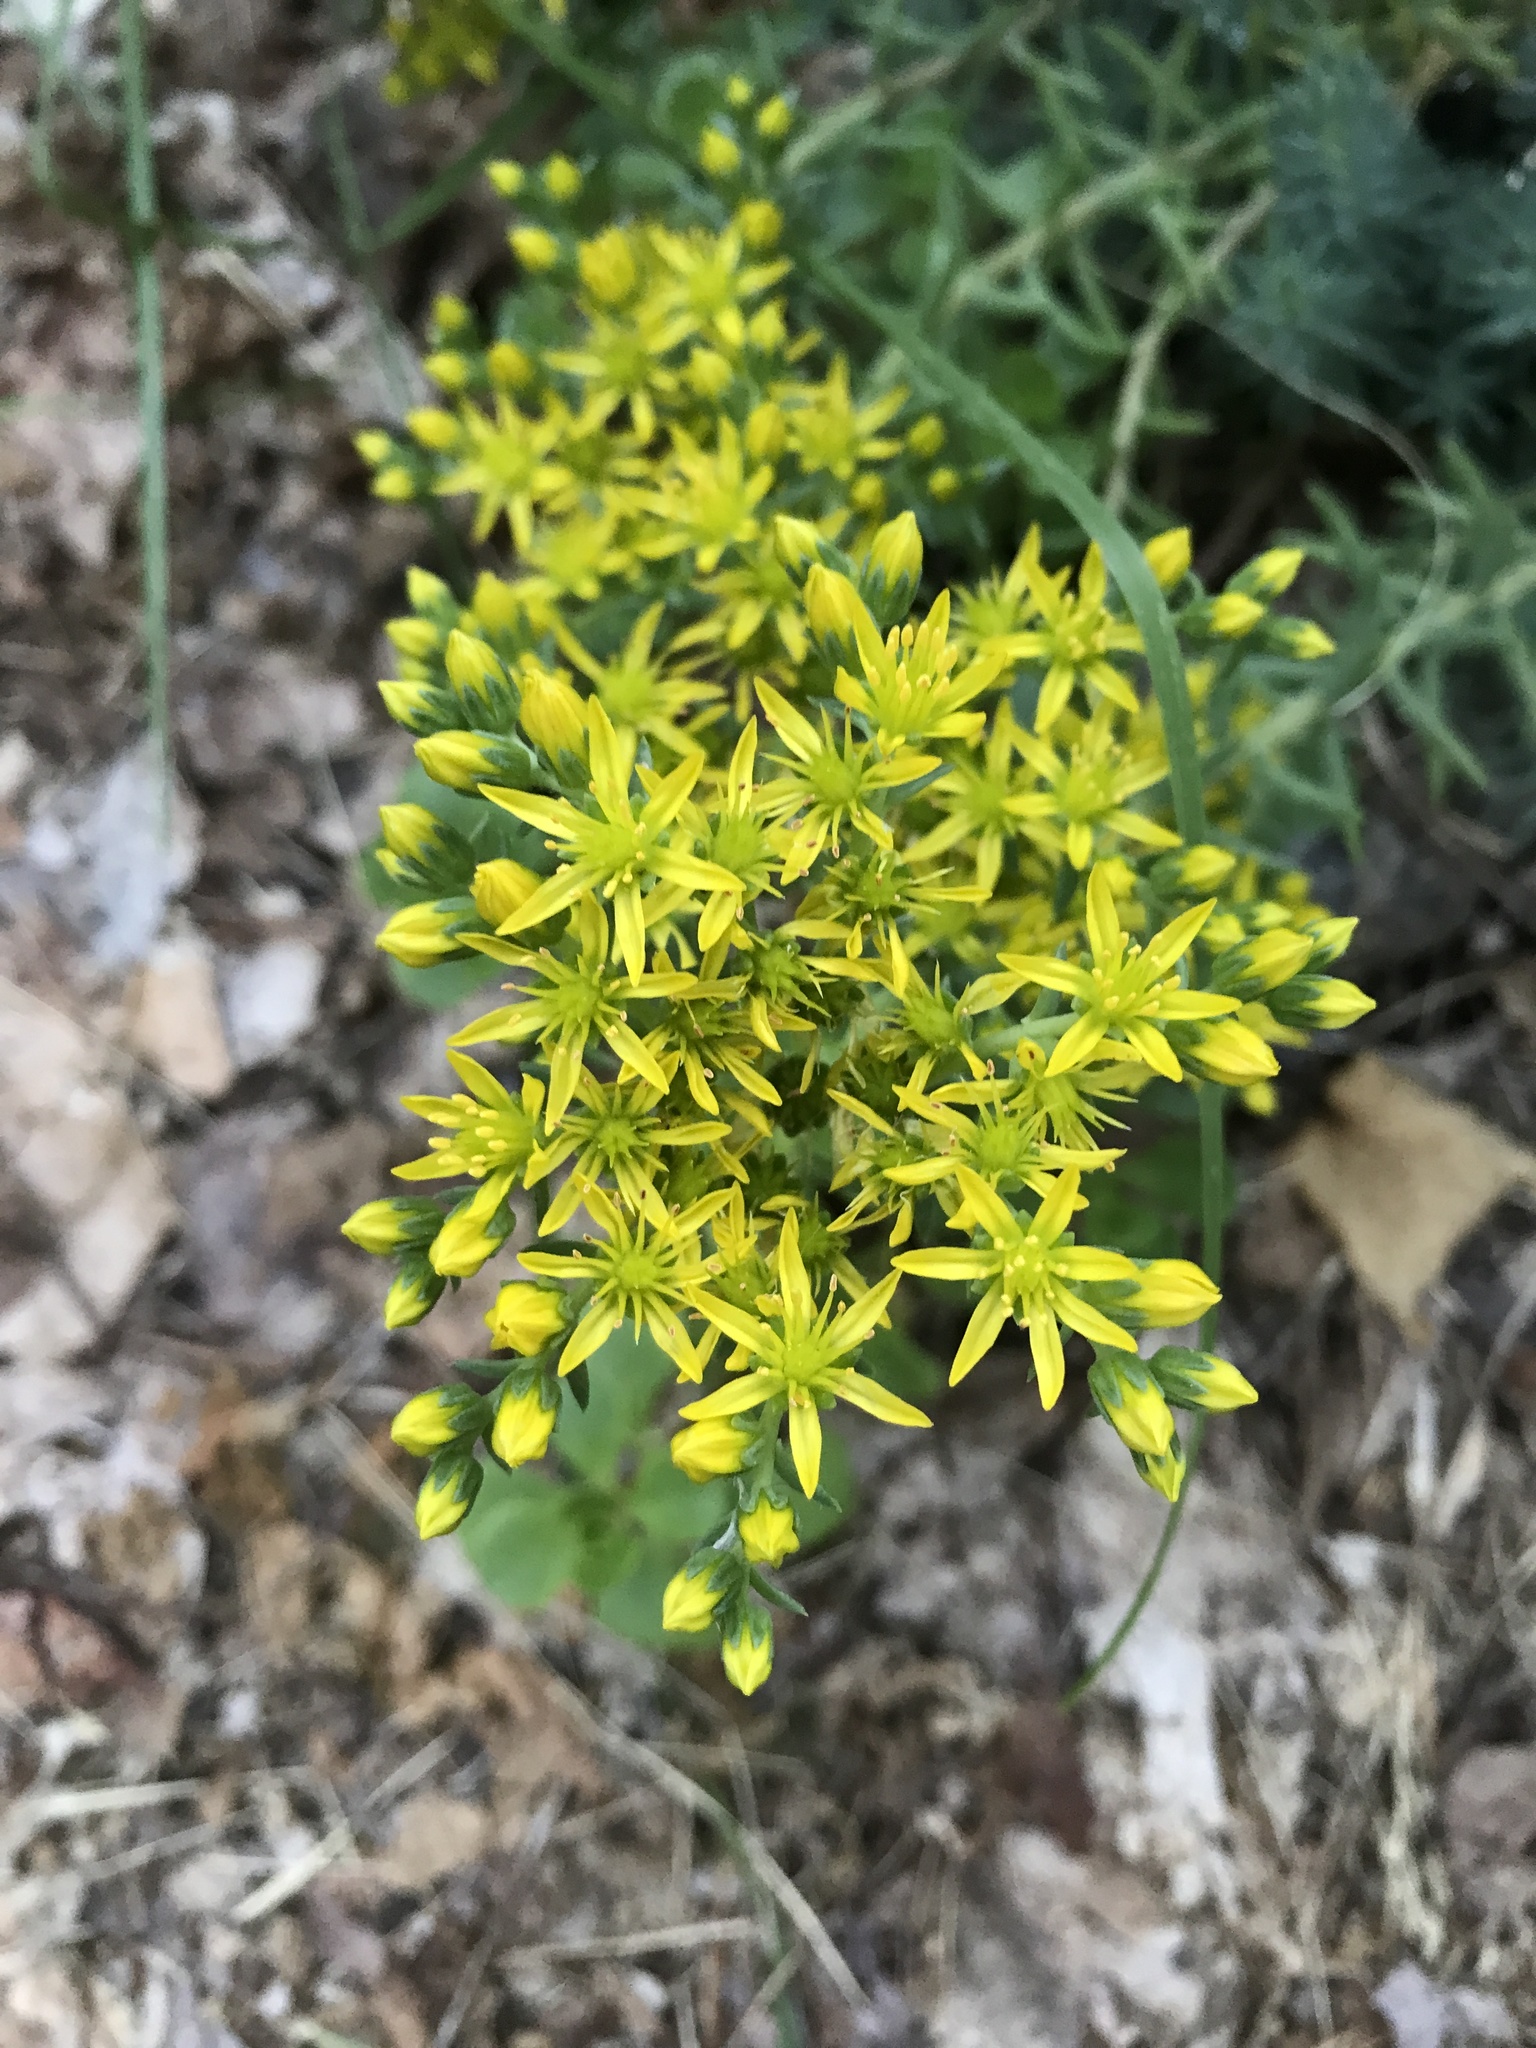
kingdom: Plantae
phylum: Tracheophyta
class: Magnoliopsida
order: Saxifragales
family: Crassulaceae
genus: Petrosedum
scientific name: Petrosedum rupestre
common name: Jenny's stonecrop
